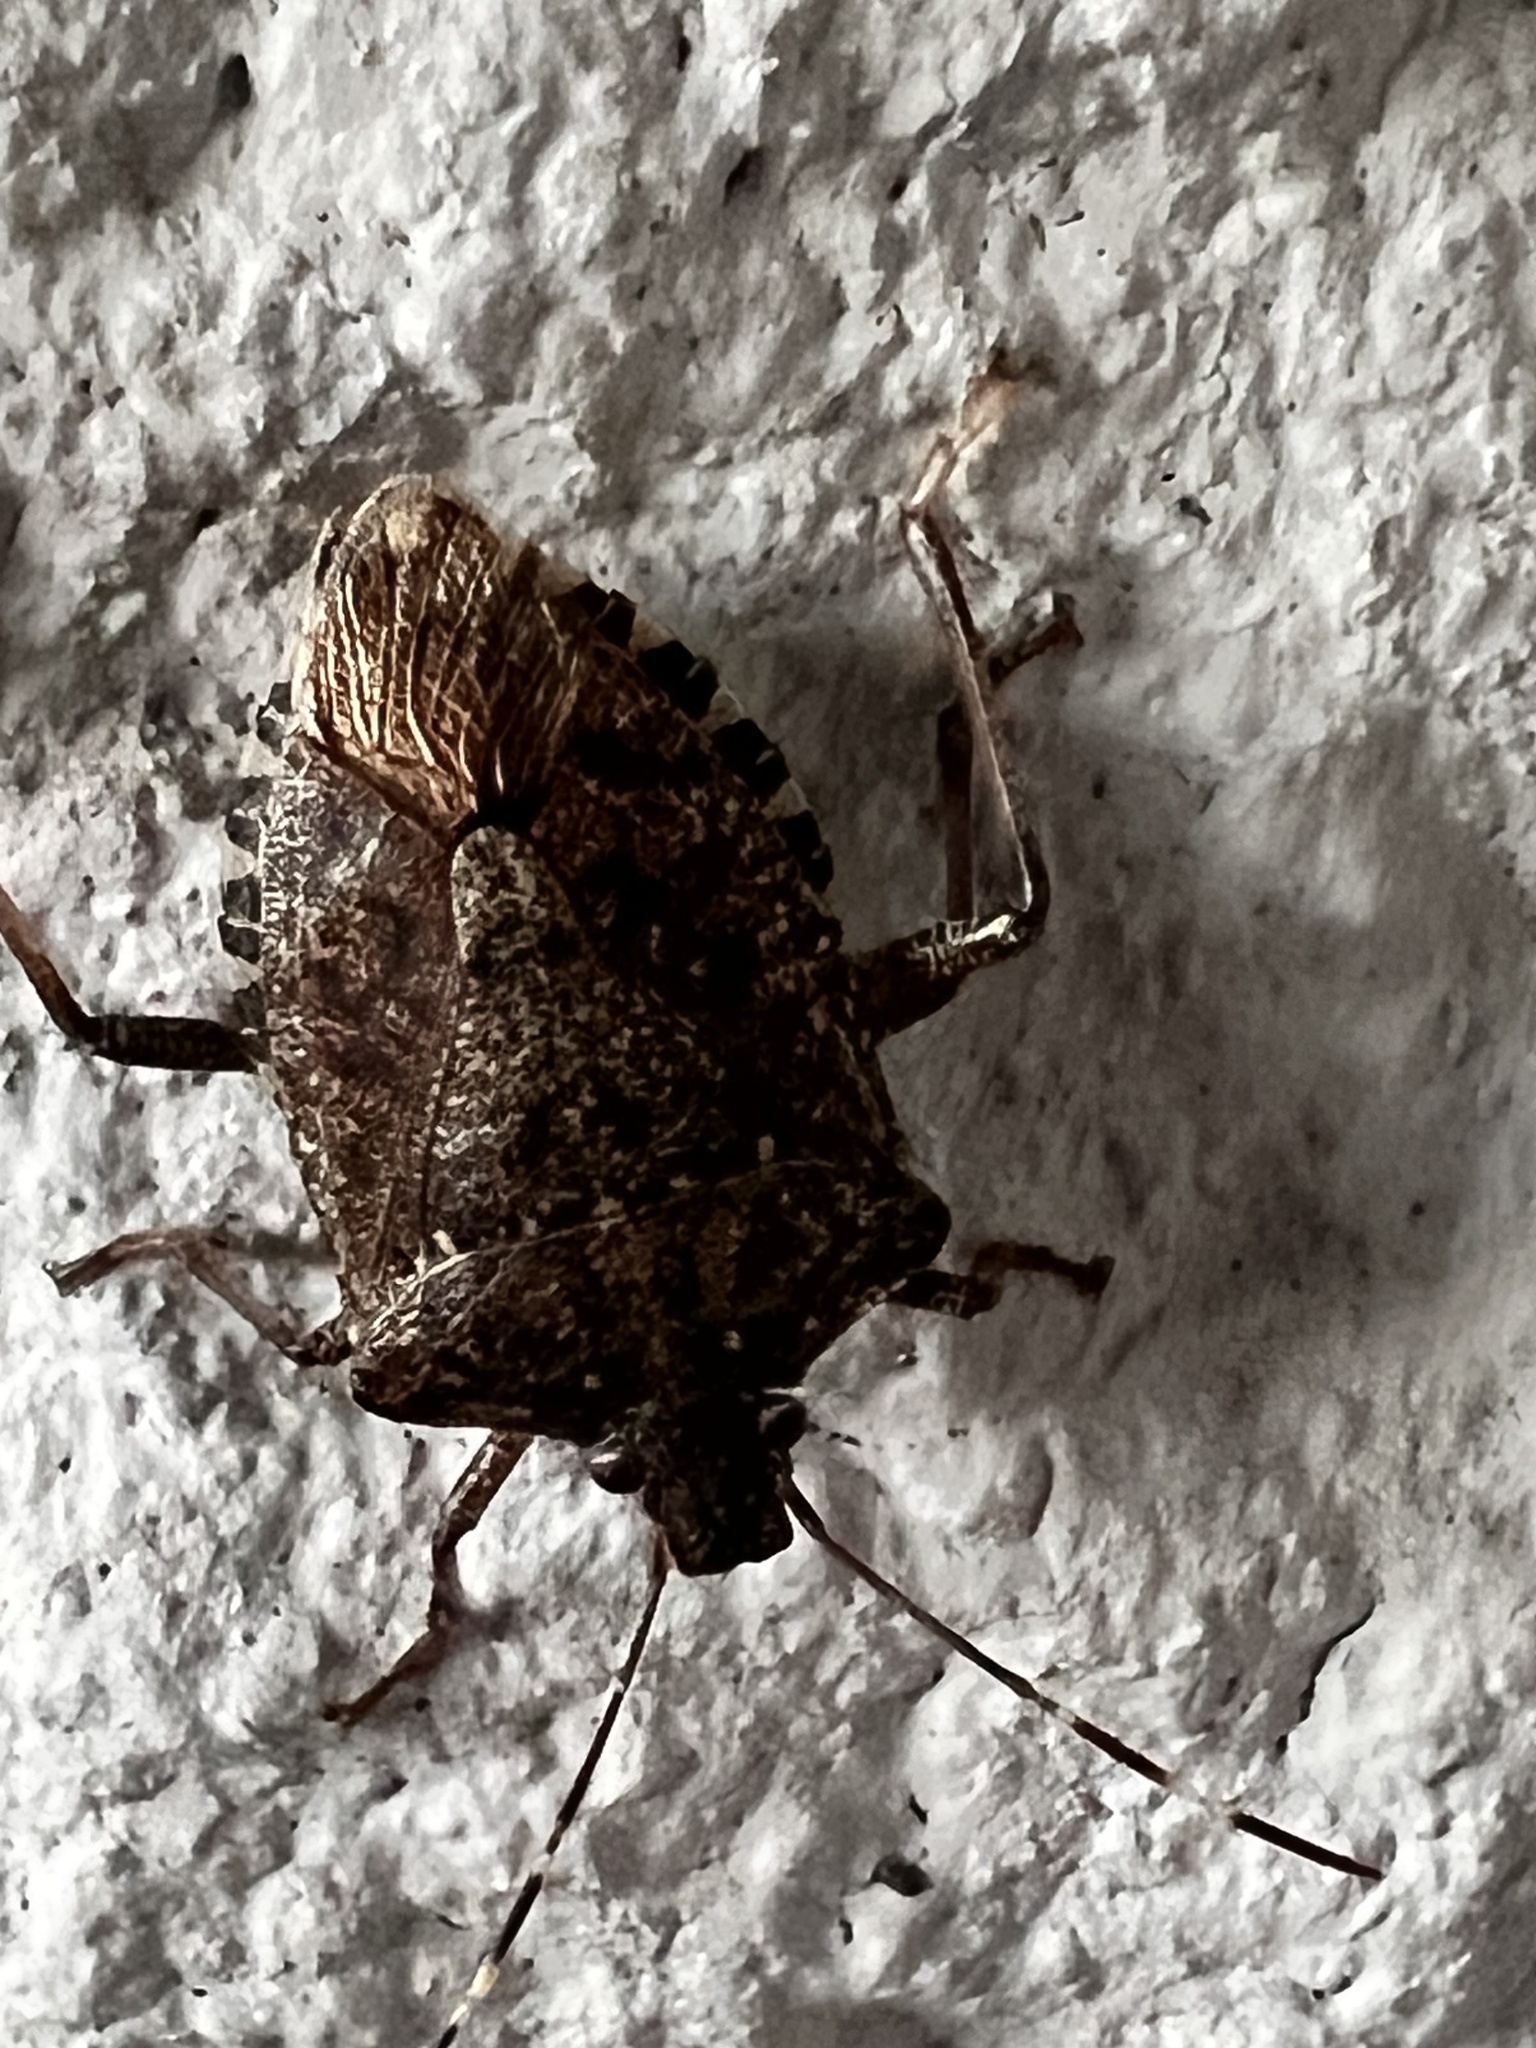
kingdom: Animalia
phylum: Arthropoda
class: Insecta
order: Hemiptera
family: Pentatomidae
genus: Halyomorpha
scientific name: Halyomorpha halys
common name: Brown marmorated stink bug
